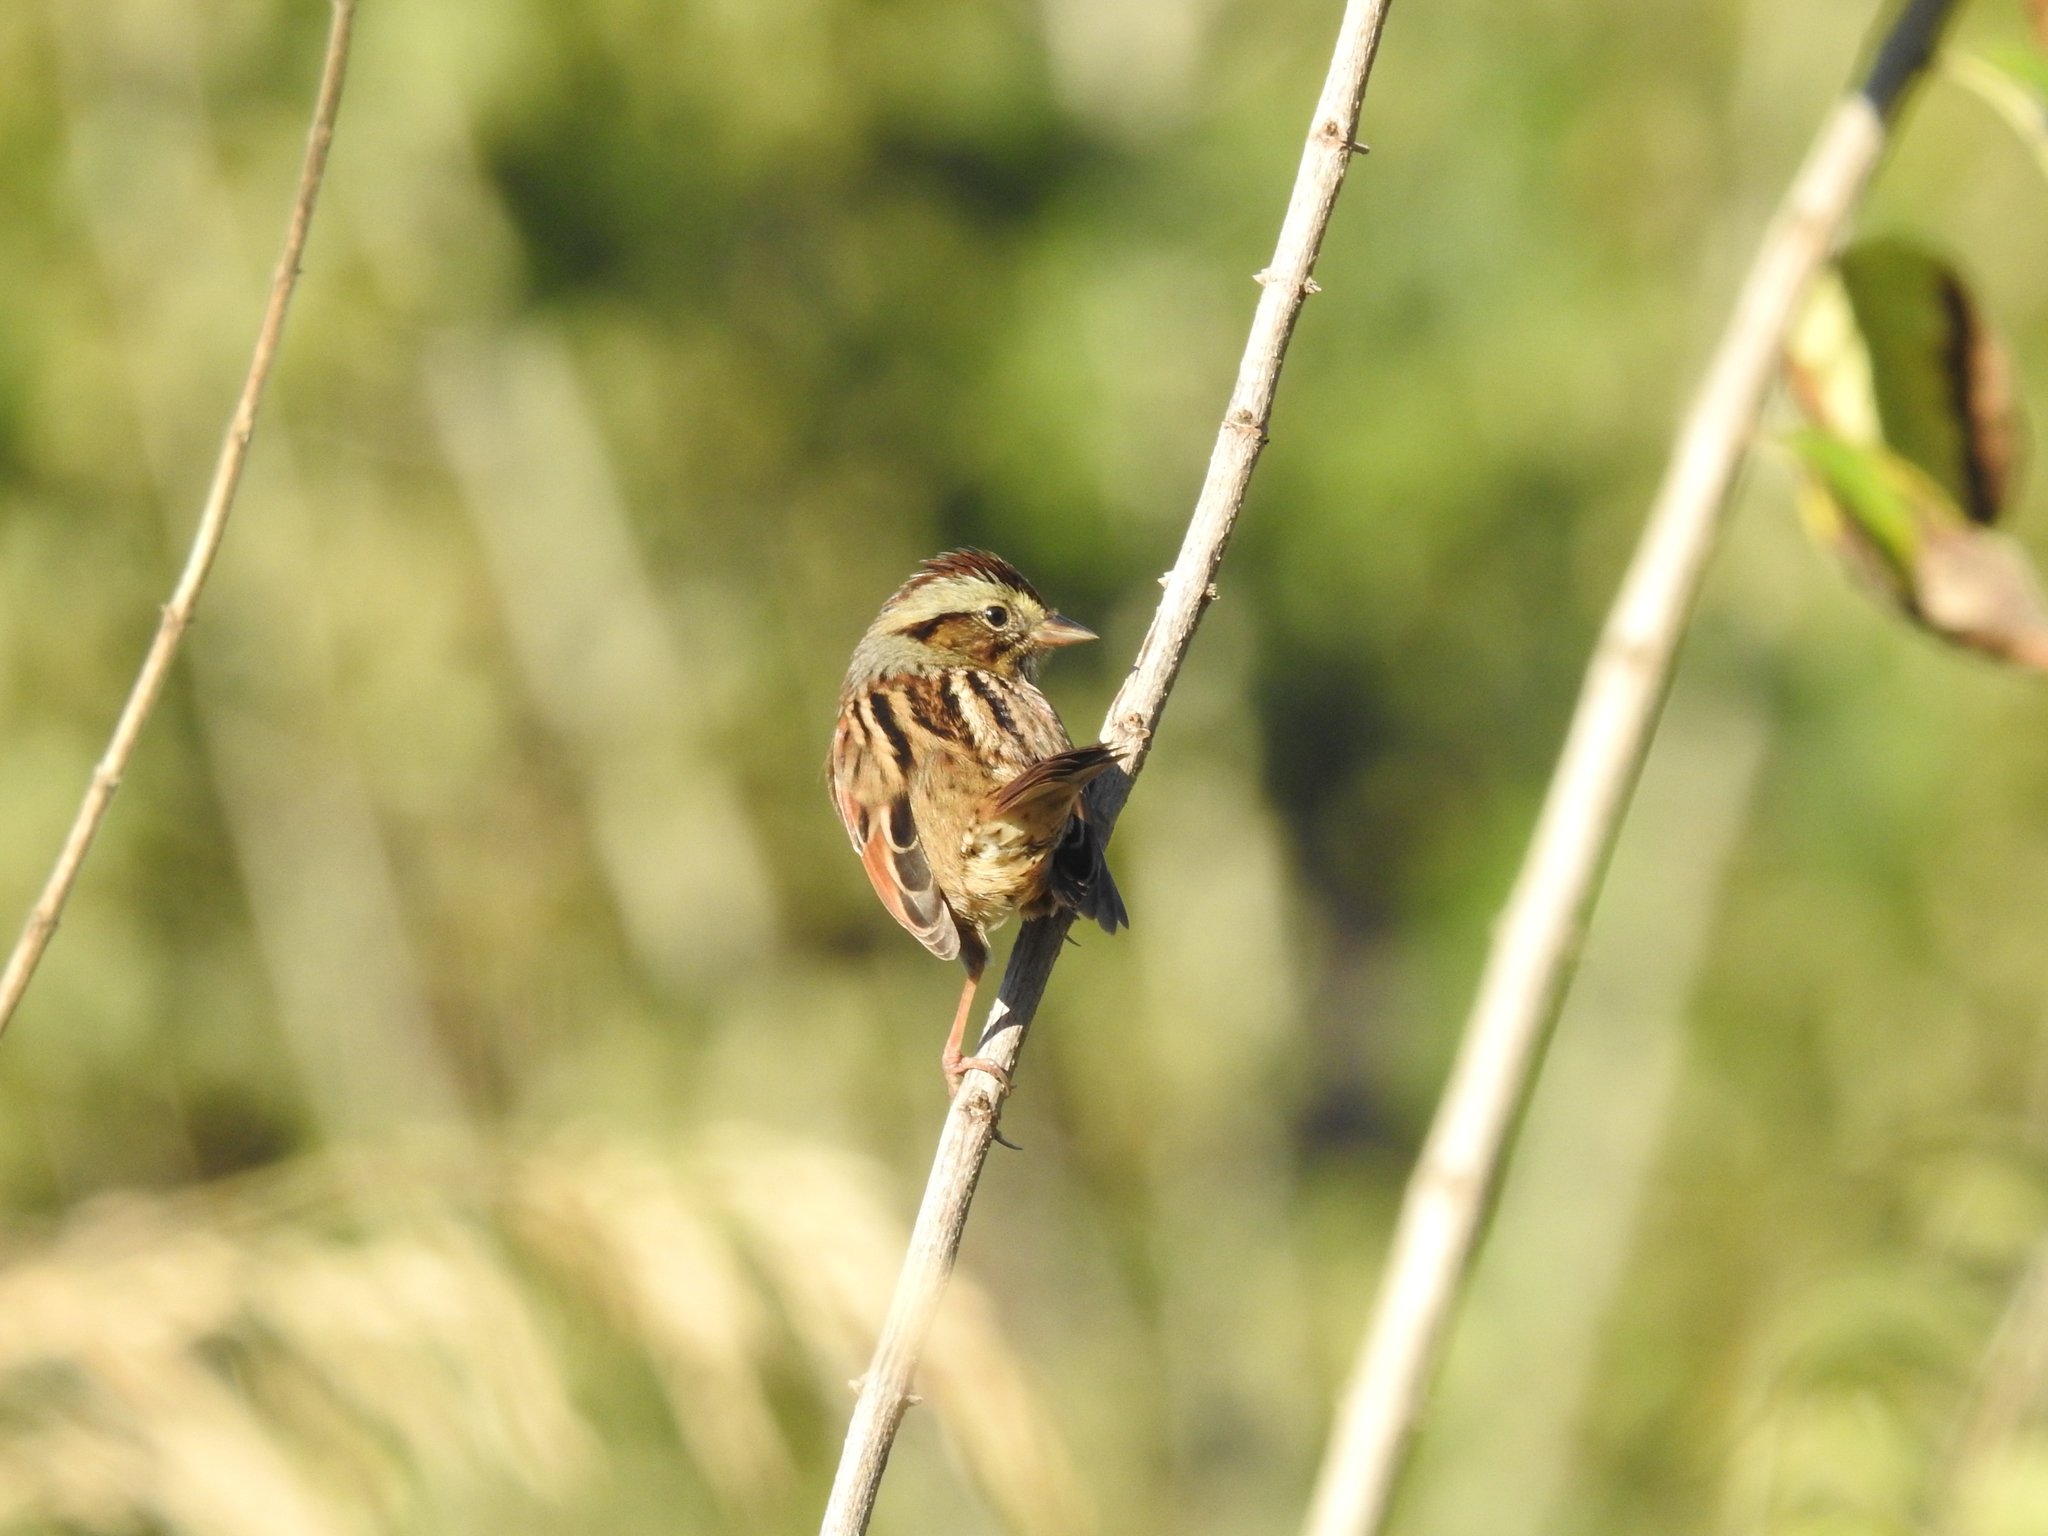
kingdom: Animalia
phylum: Chordata
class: Aves
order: Passeriformes
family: Passerellidae
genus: Melospiza
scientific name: Melospiza georgiana
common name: Swamp sparrow
